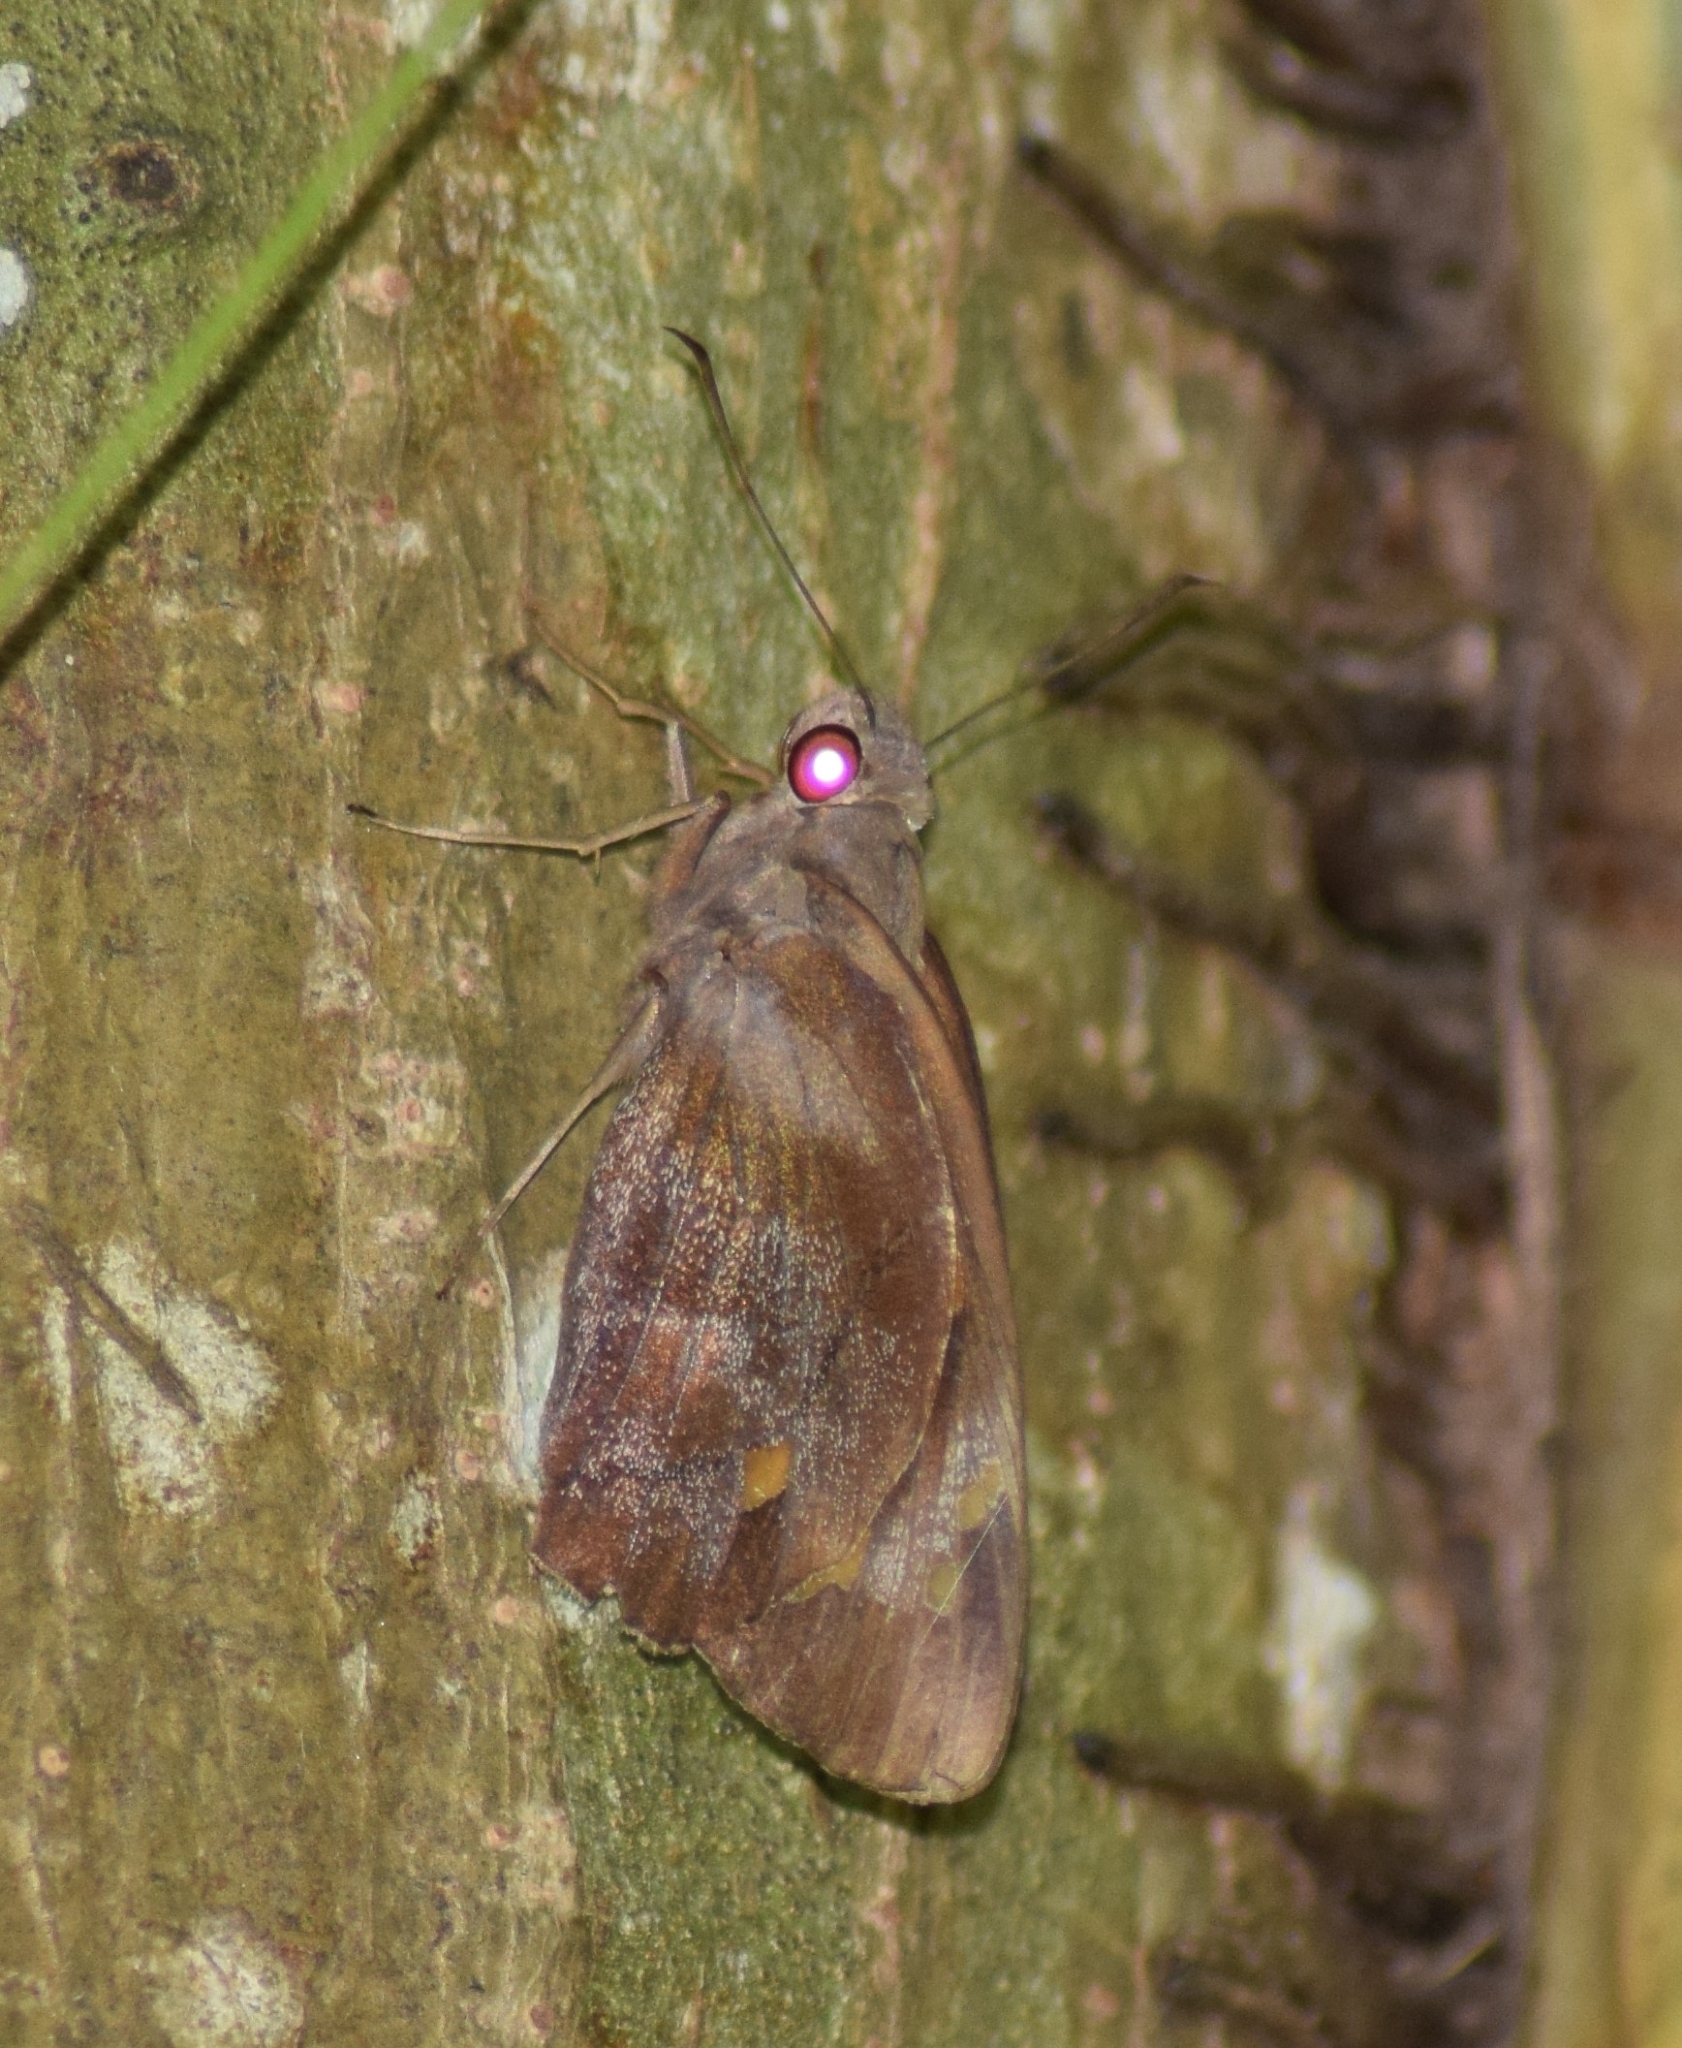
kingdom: Animalia
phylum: Arthropoda
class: Insecta
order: Lepidoptera
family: Hesperiidae
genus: Gangara
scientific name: Gangara thyrsis
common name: Giant redeye
